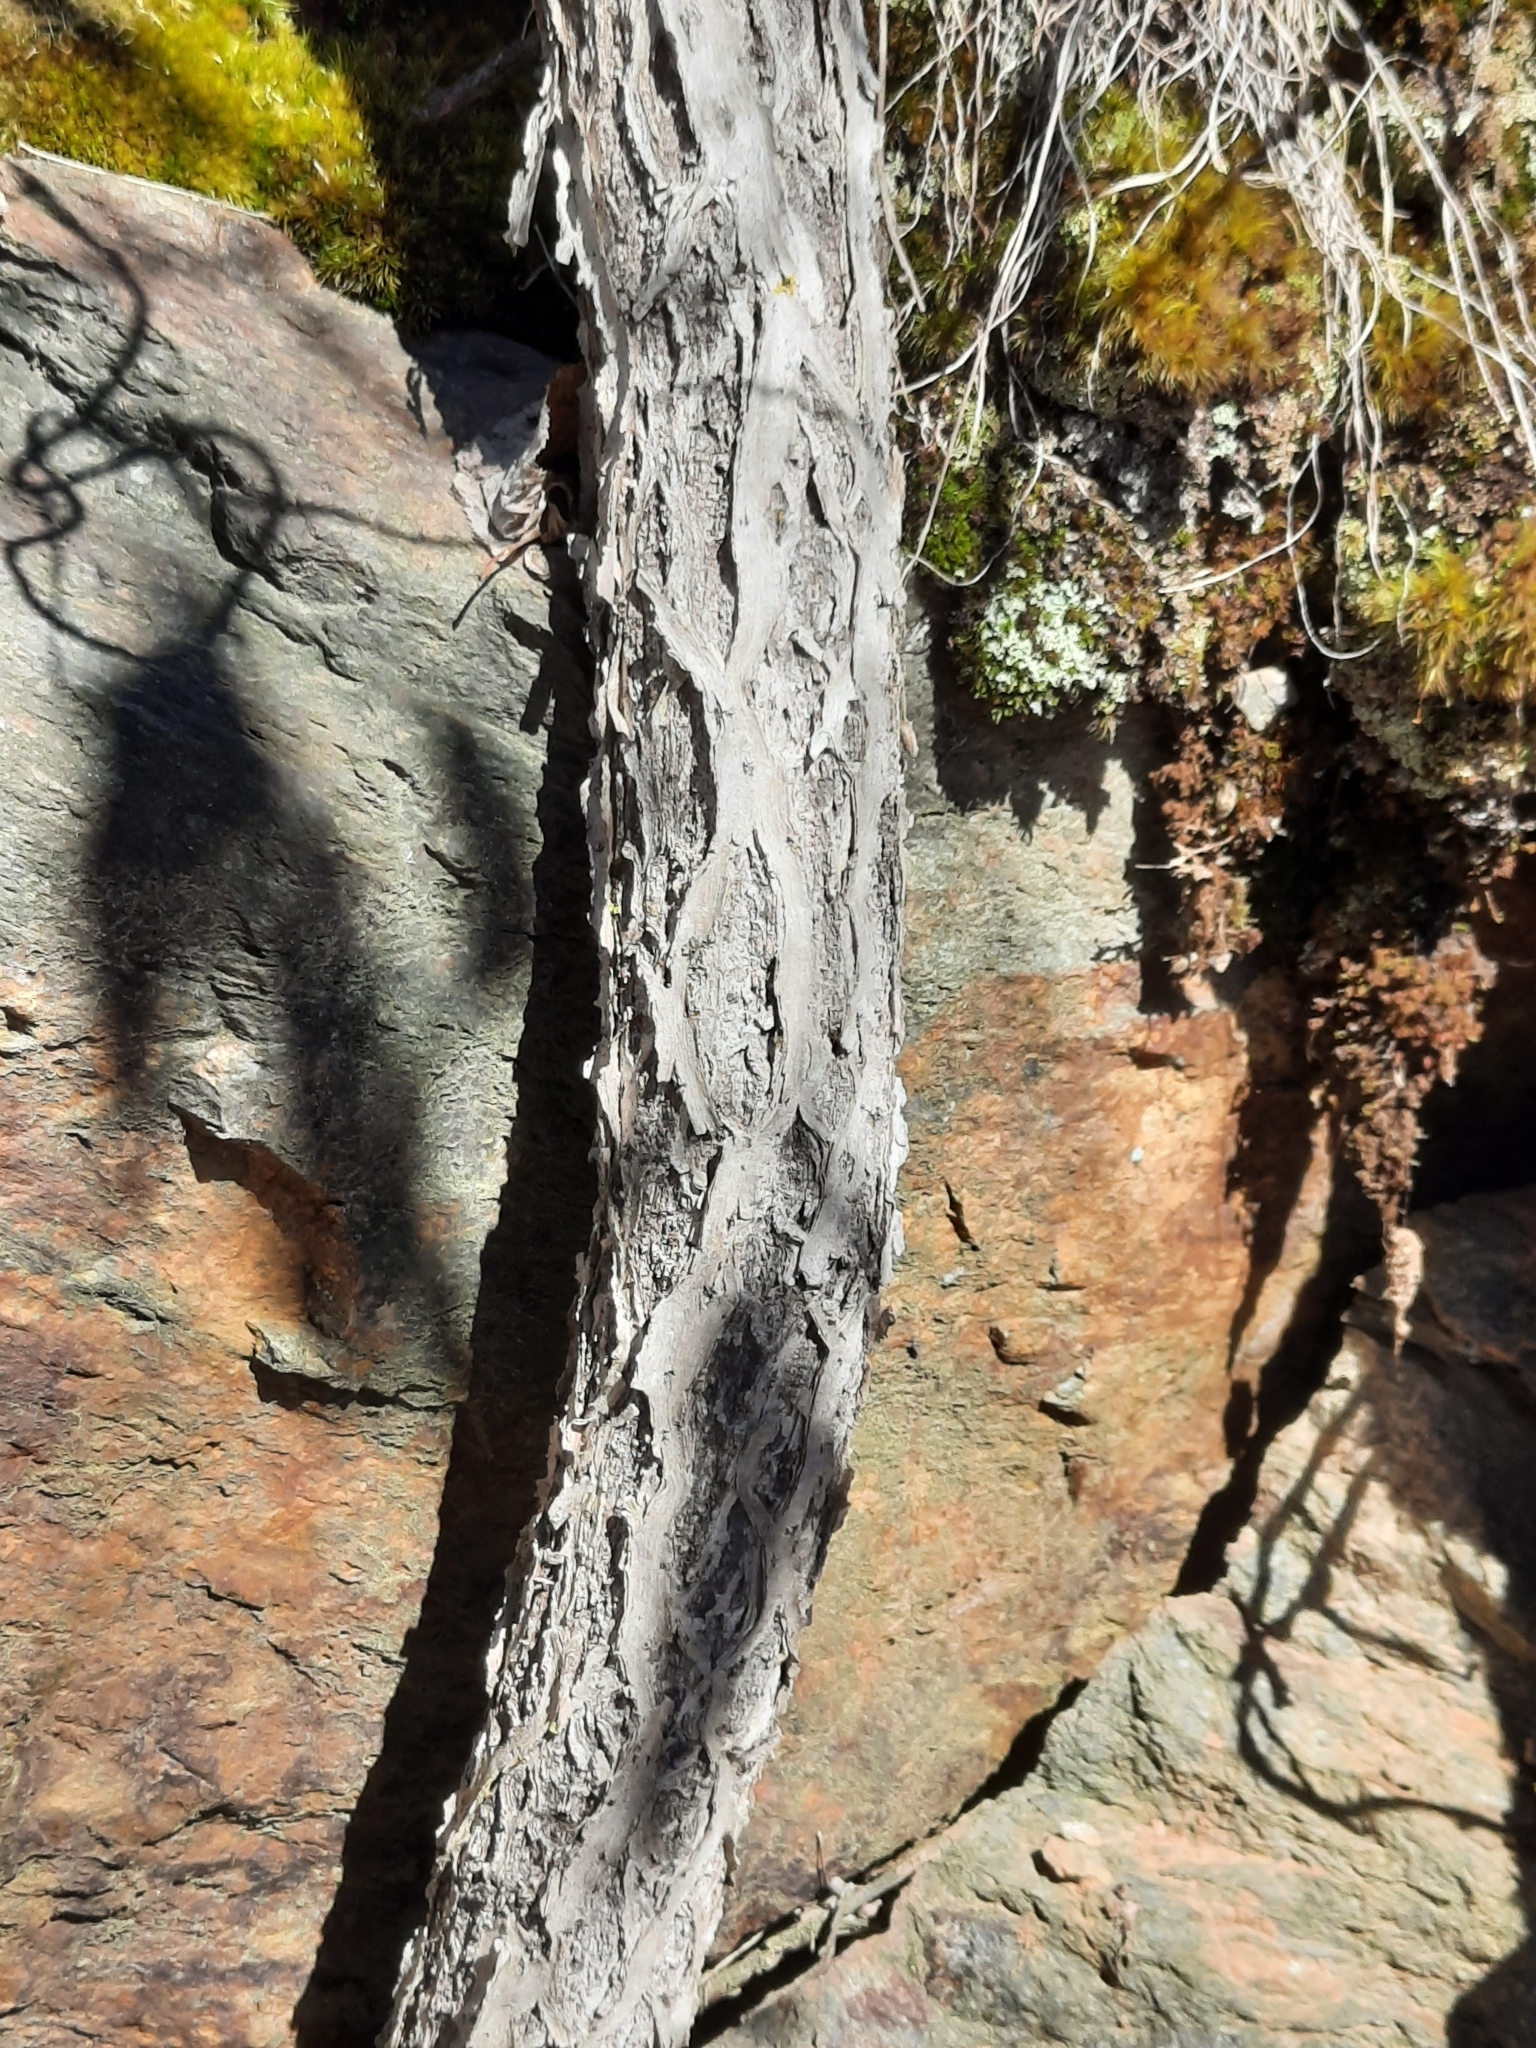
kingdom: Plantae
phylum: Tracheophyta
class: Magnoliopsida
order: Celastrales
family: Celastraceae
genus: Celastrus
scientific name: Celastrus orbiculatus
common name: Oriental bittersweet
